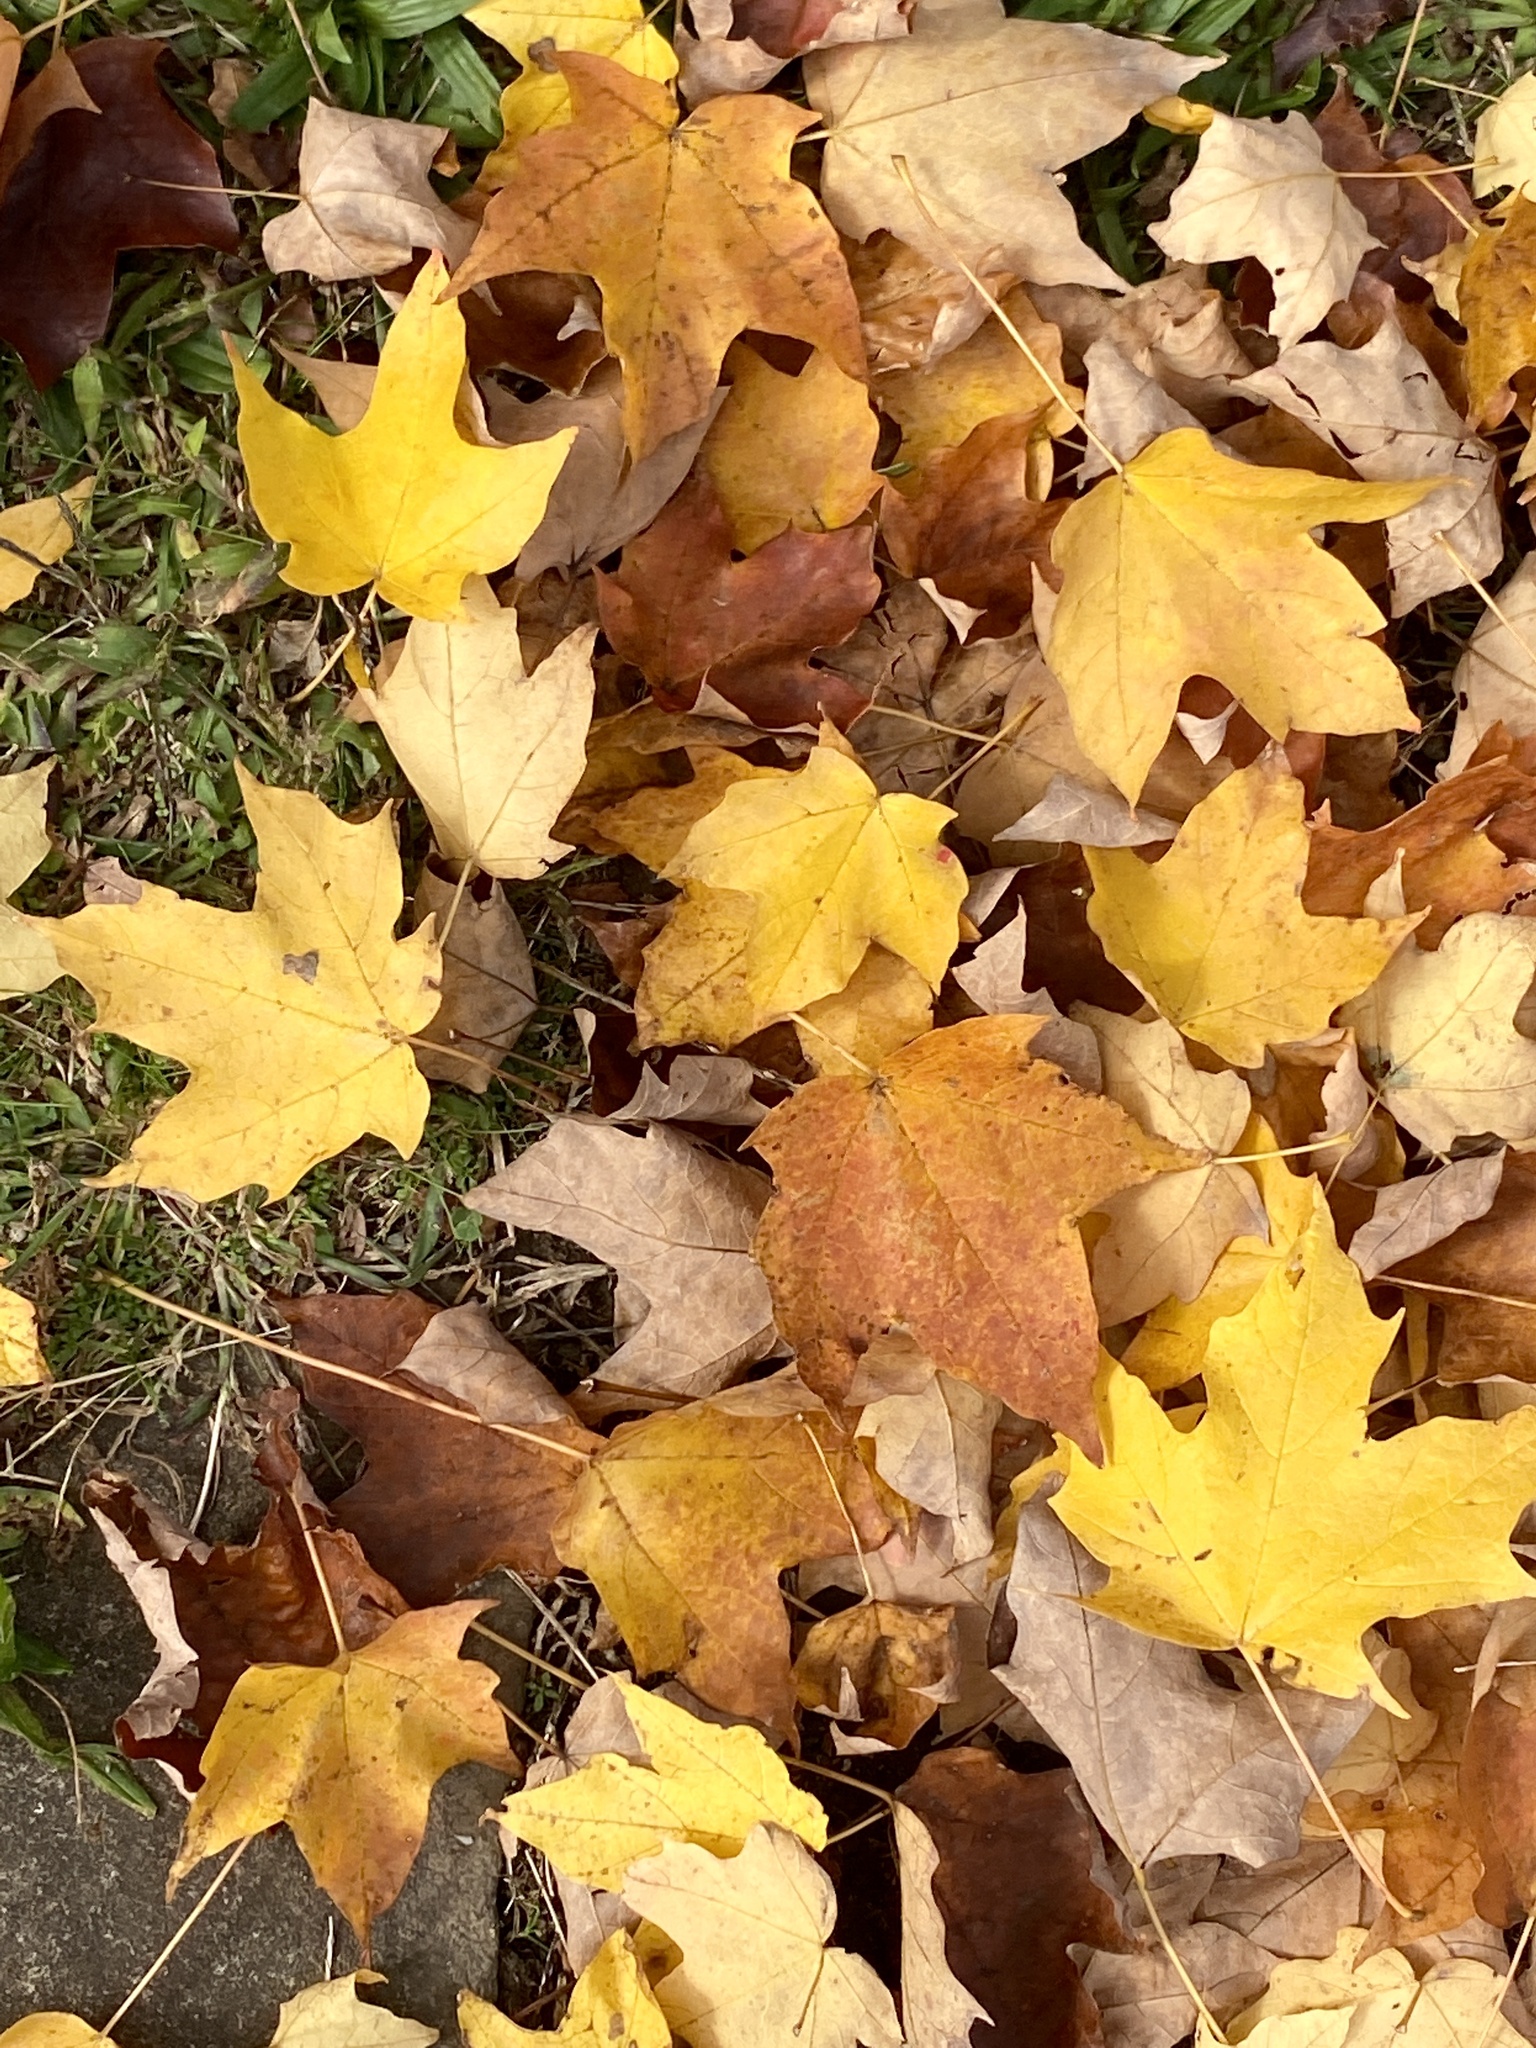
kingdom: Plantae
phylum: Tracheophyta
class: Magnoliopsida
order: Sapindales
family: Sapindaceae
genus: Acer
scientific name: Acer saccharum
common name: Sugar maple
